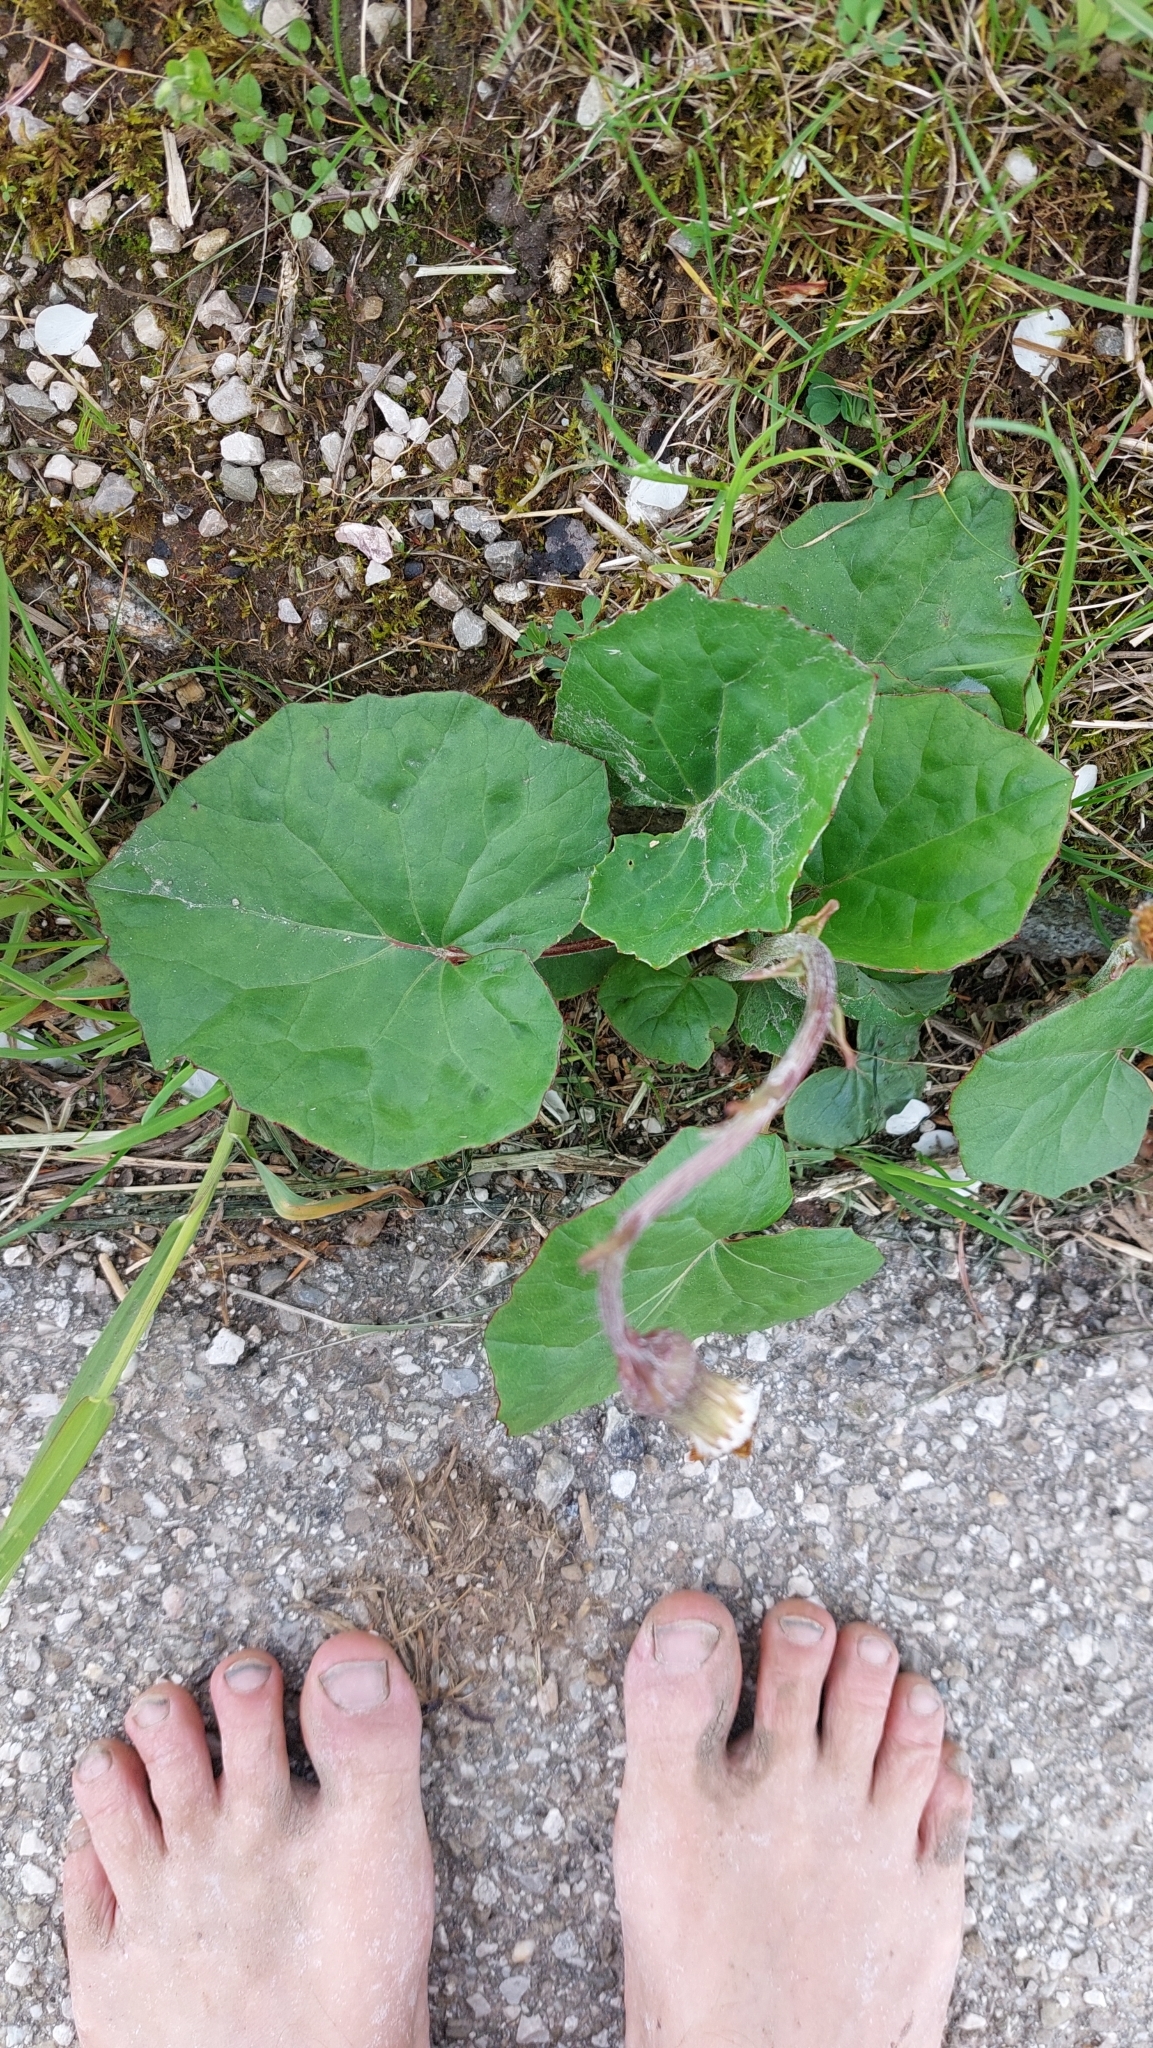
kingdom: Plantae
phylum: Tracheophyta
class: Magnoliopsida
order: Asterales
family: Asteraceae
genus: Tussilago
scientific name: Tussilago farfara
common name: Coltsfoot
